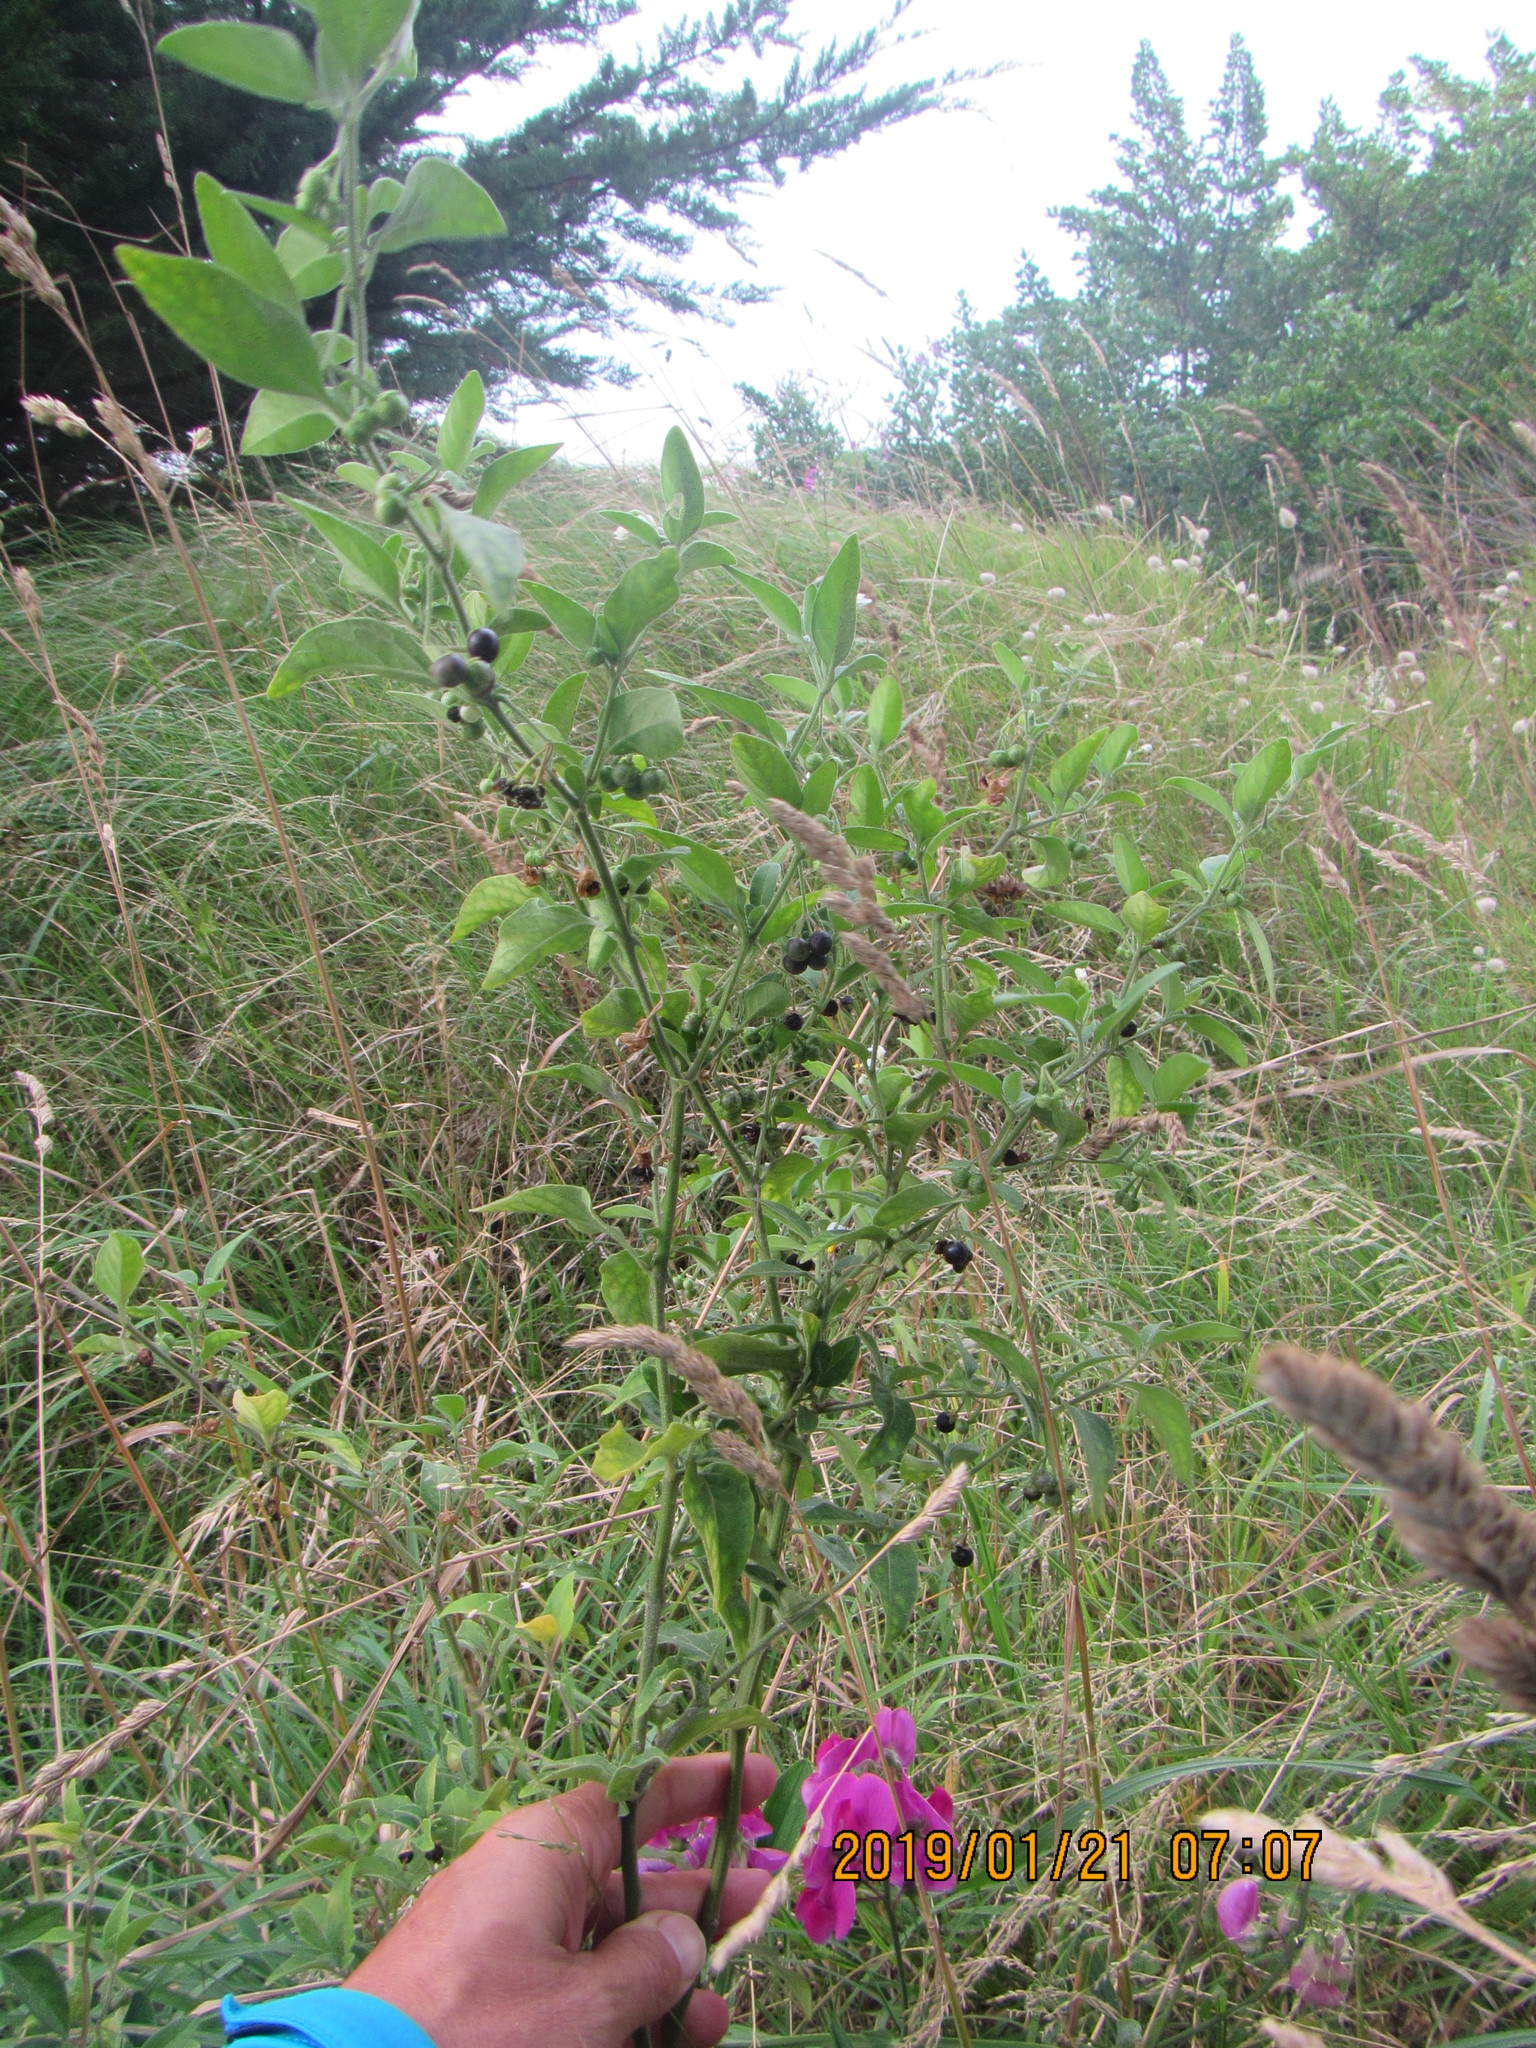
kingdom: Plantae
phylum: Tracheophyta
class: Magnoliopsida
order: Solanales
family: Solanaceae
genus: Solanum
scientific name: Solanum chenopodioides
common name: Tall nightshade
